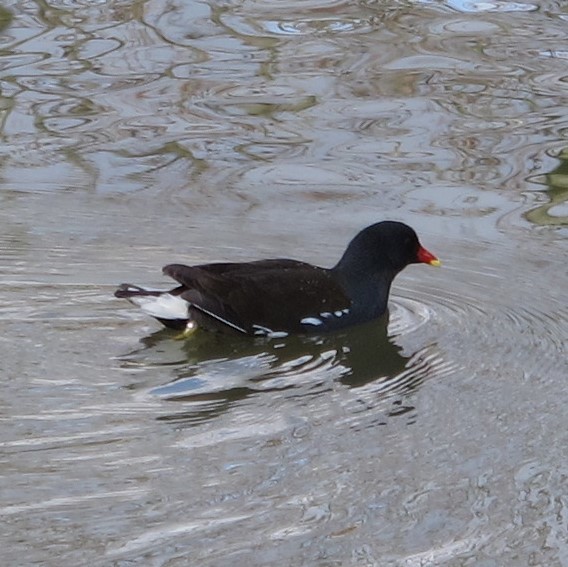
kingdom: Animalia
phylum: Chordata
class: Aves
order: Gruiformes
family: Rallidae
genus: Gallinula
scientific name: Gallinula chloropus
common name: Common moorhen
